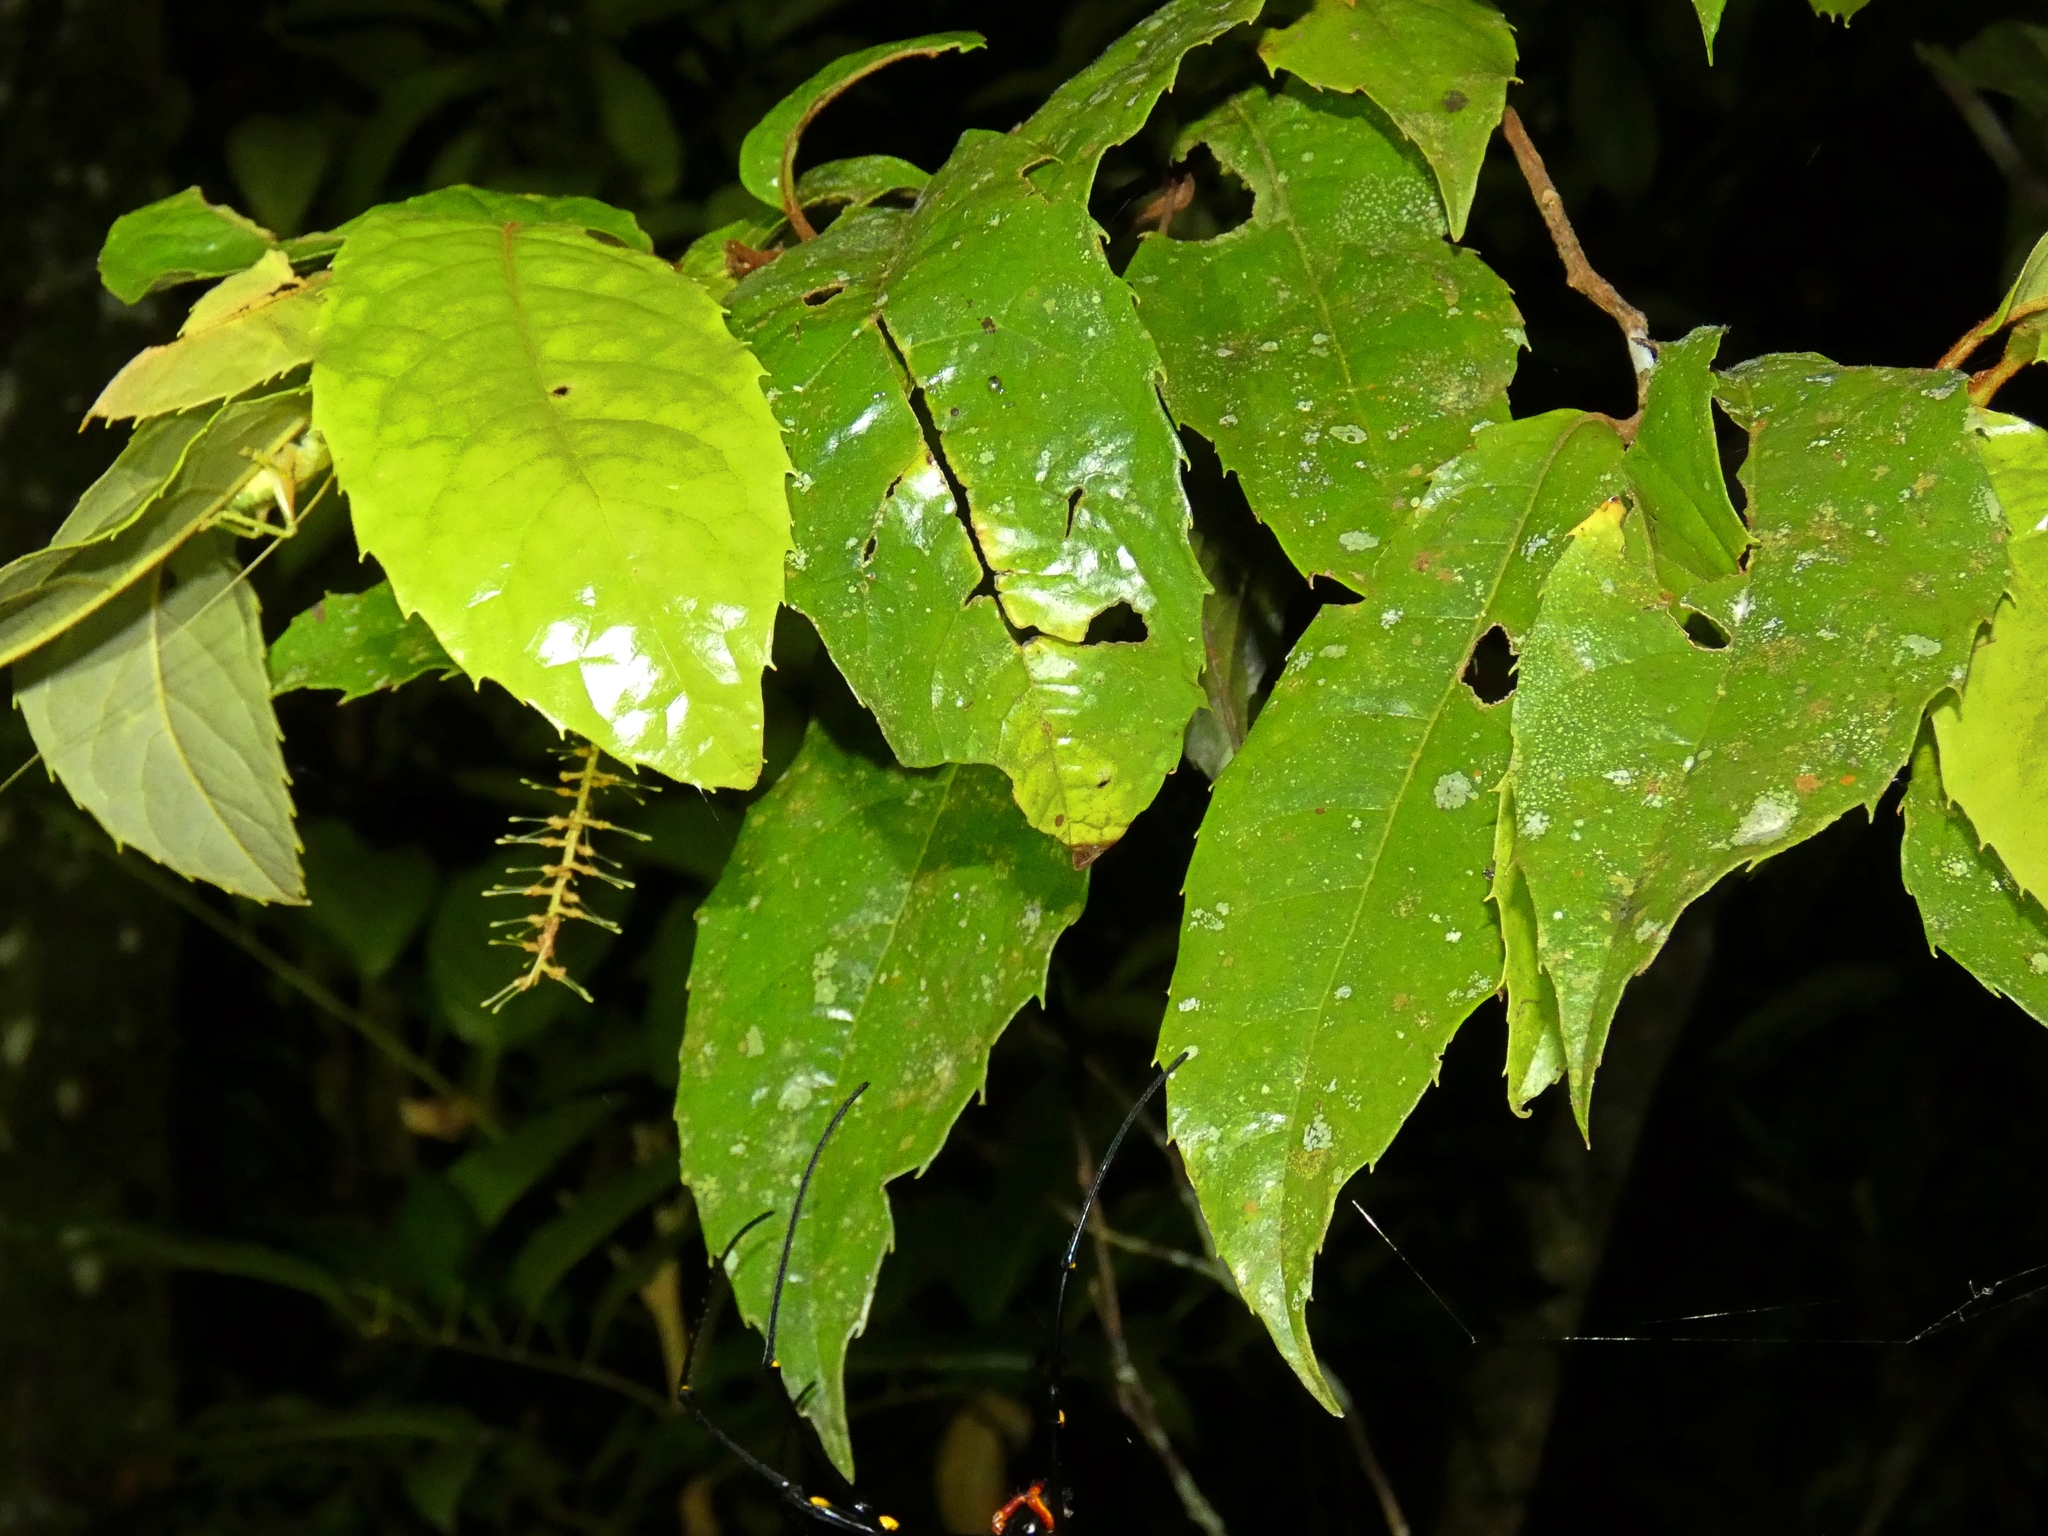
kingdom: Plantae
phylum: Tracheophyta
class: Magnoliopsida
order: Proteales
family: Proteaceae
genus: Helicia
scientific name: Helicia nortoniana
